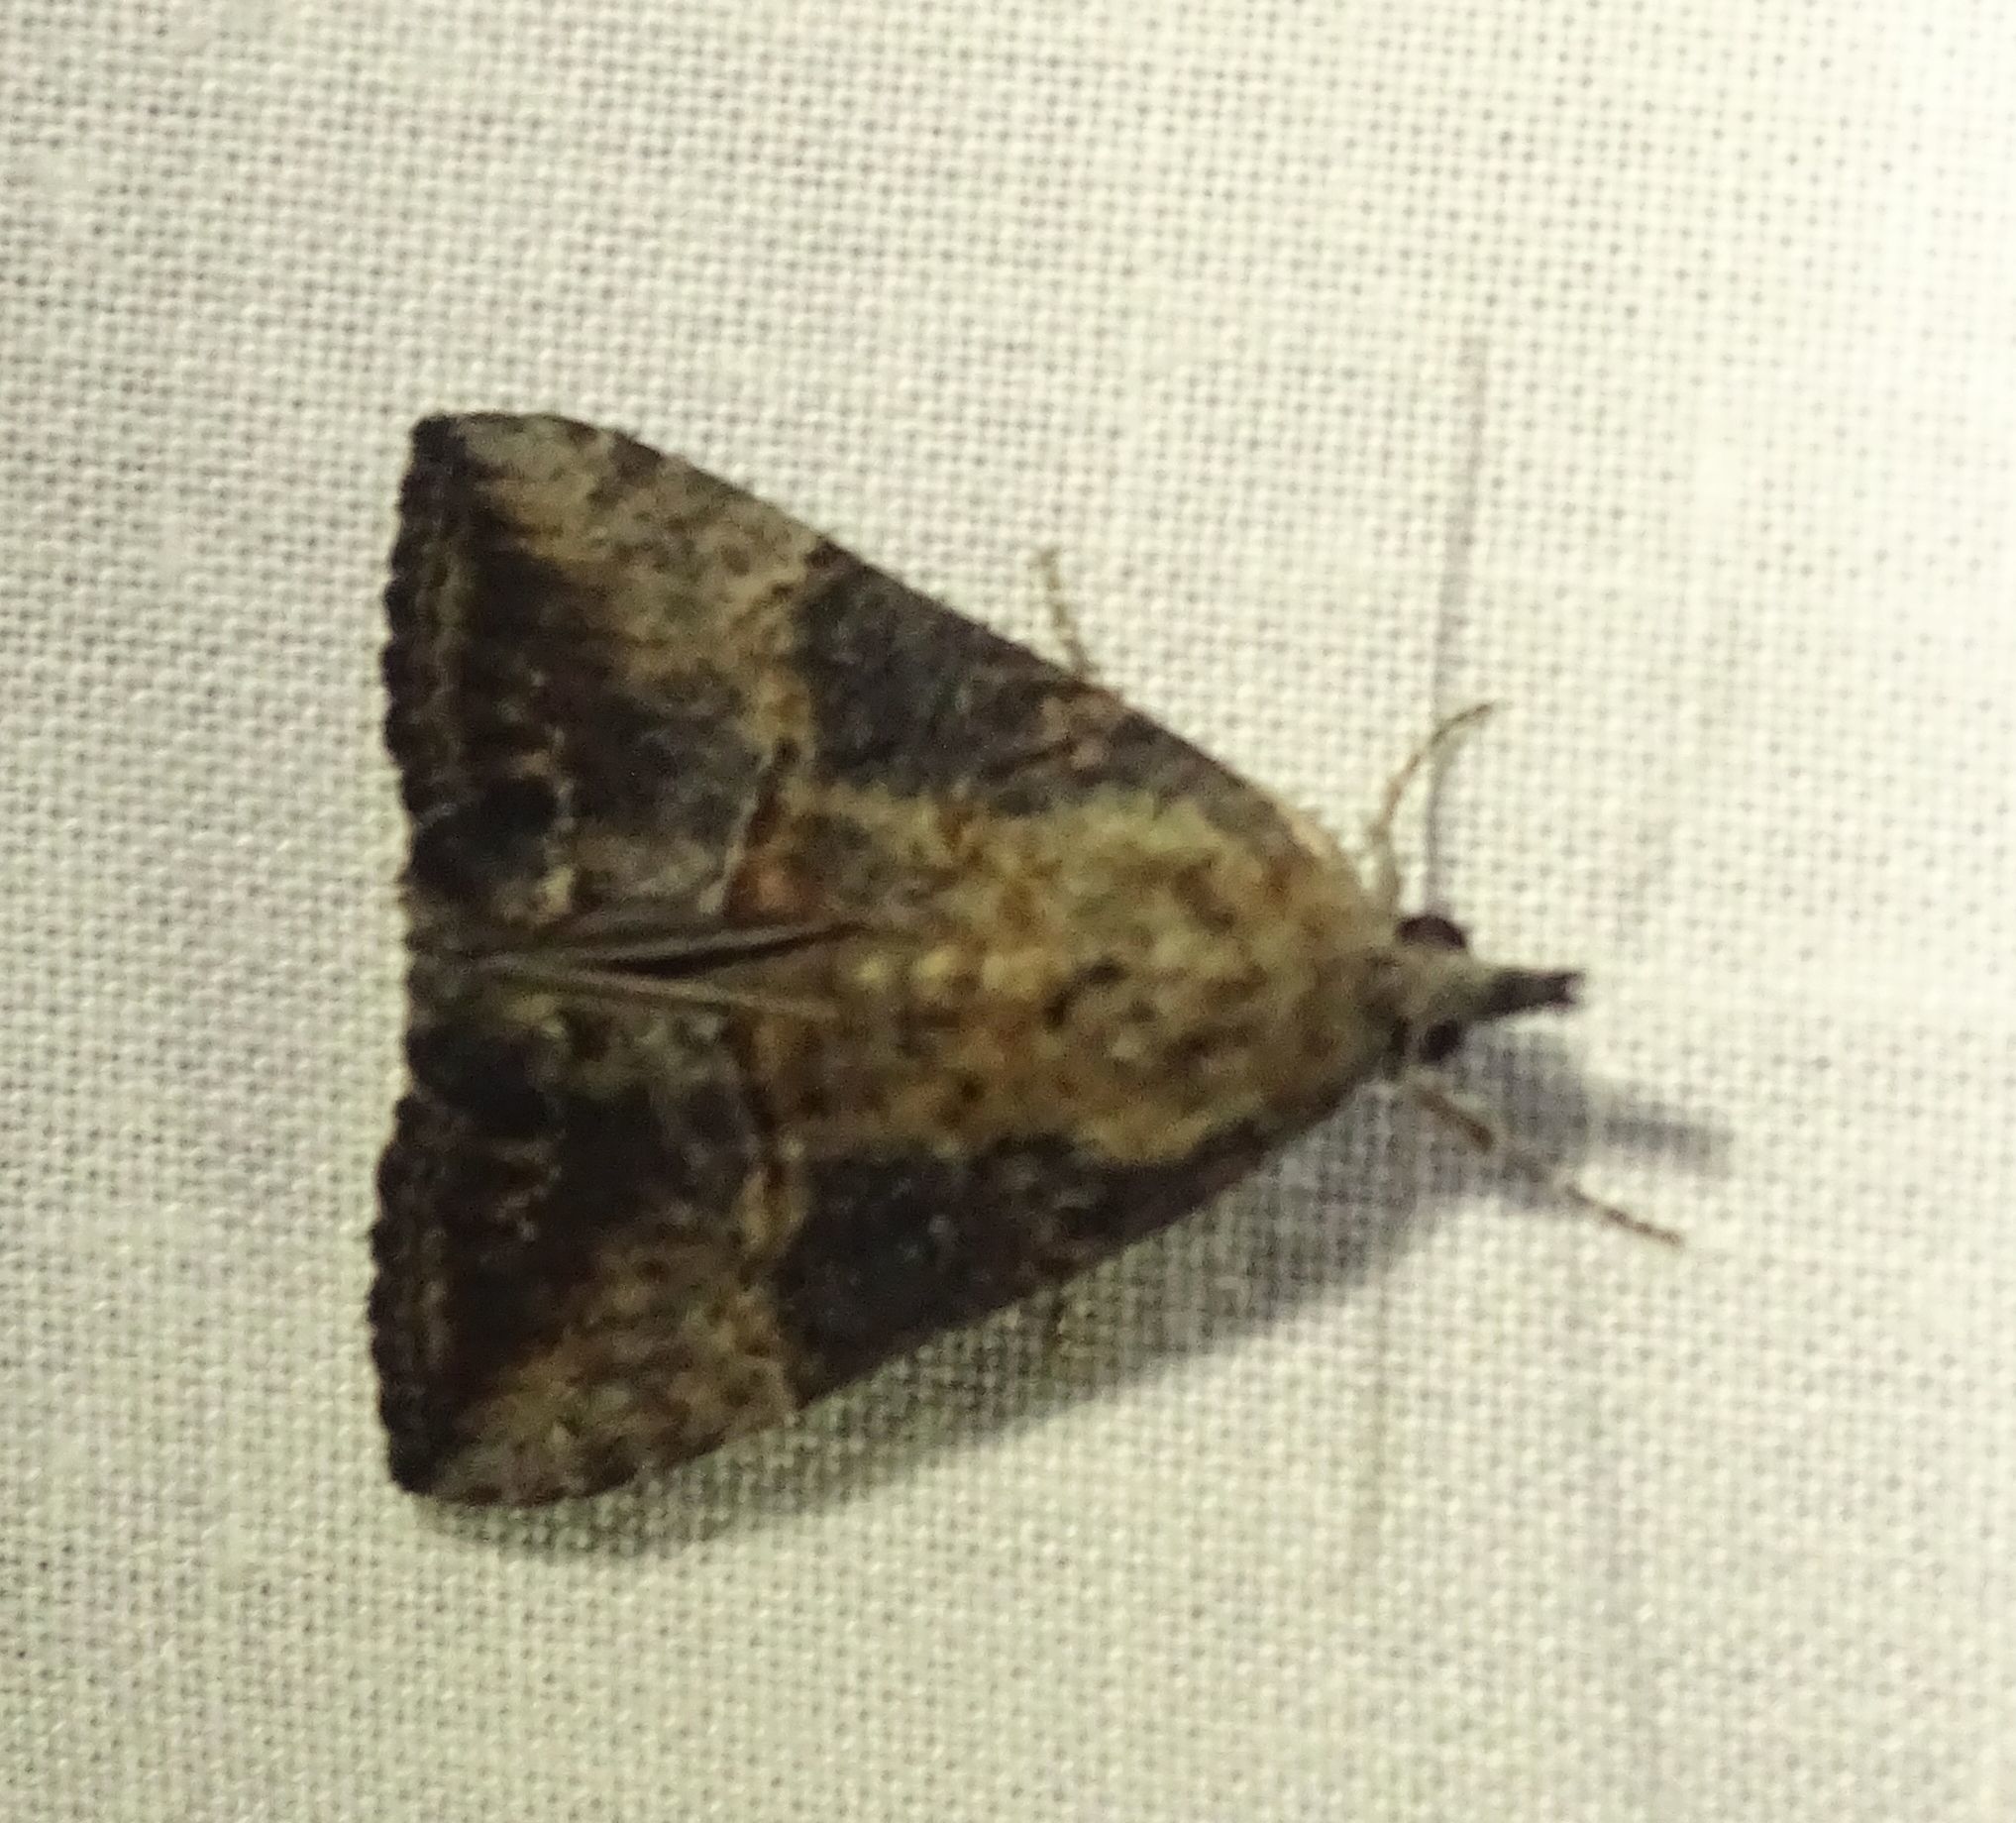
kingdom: Animalia
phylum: Arthropoda
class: Insecta
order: Lepidoptera
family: Erebidae
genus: Hypena
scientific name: Hypena scabra
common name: Green cloverworm
